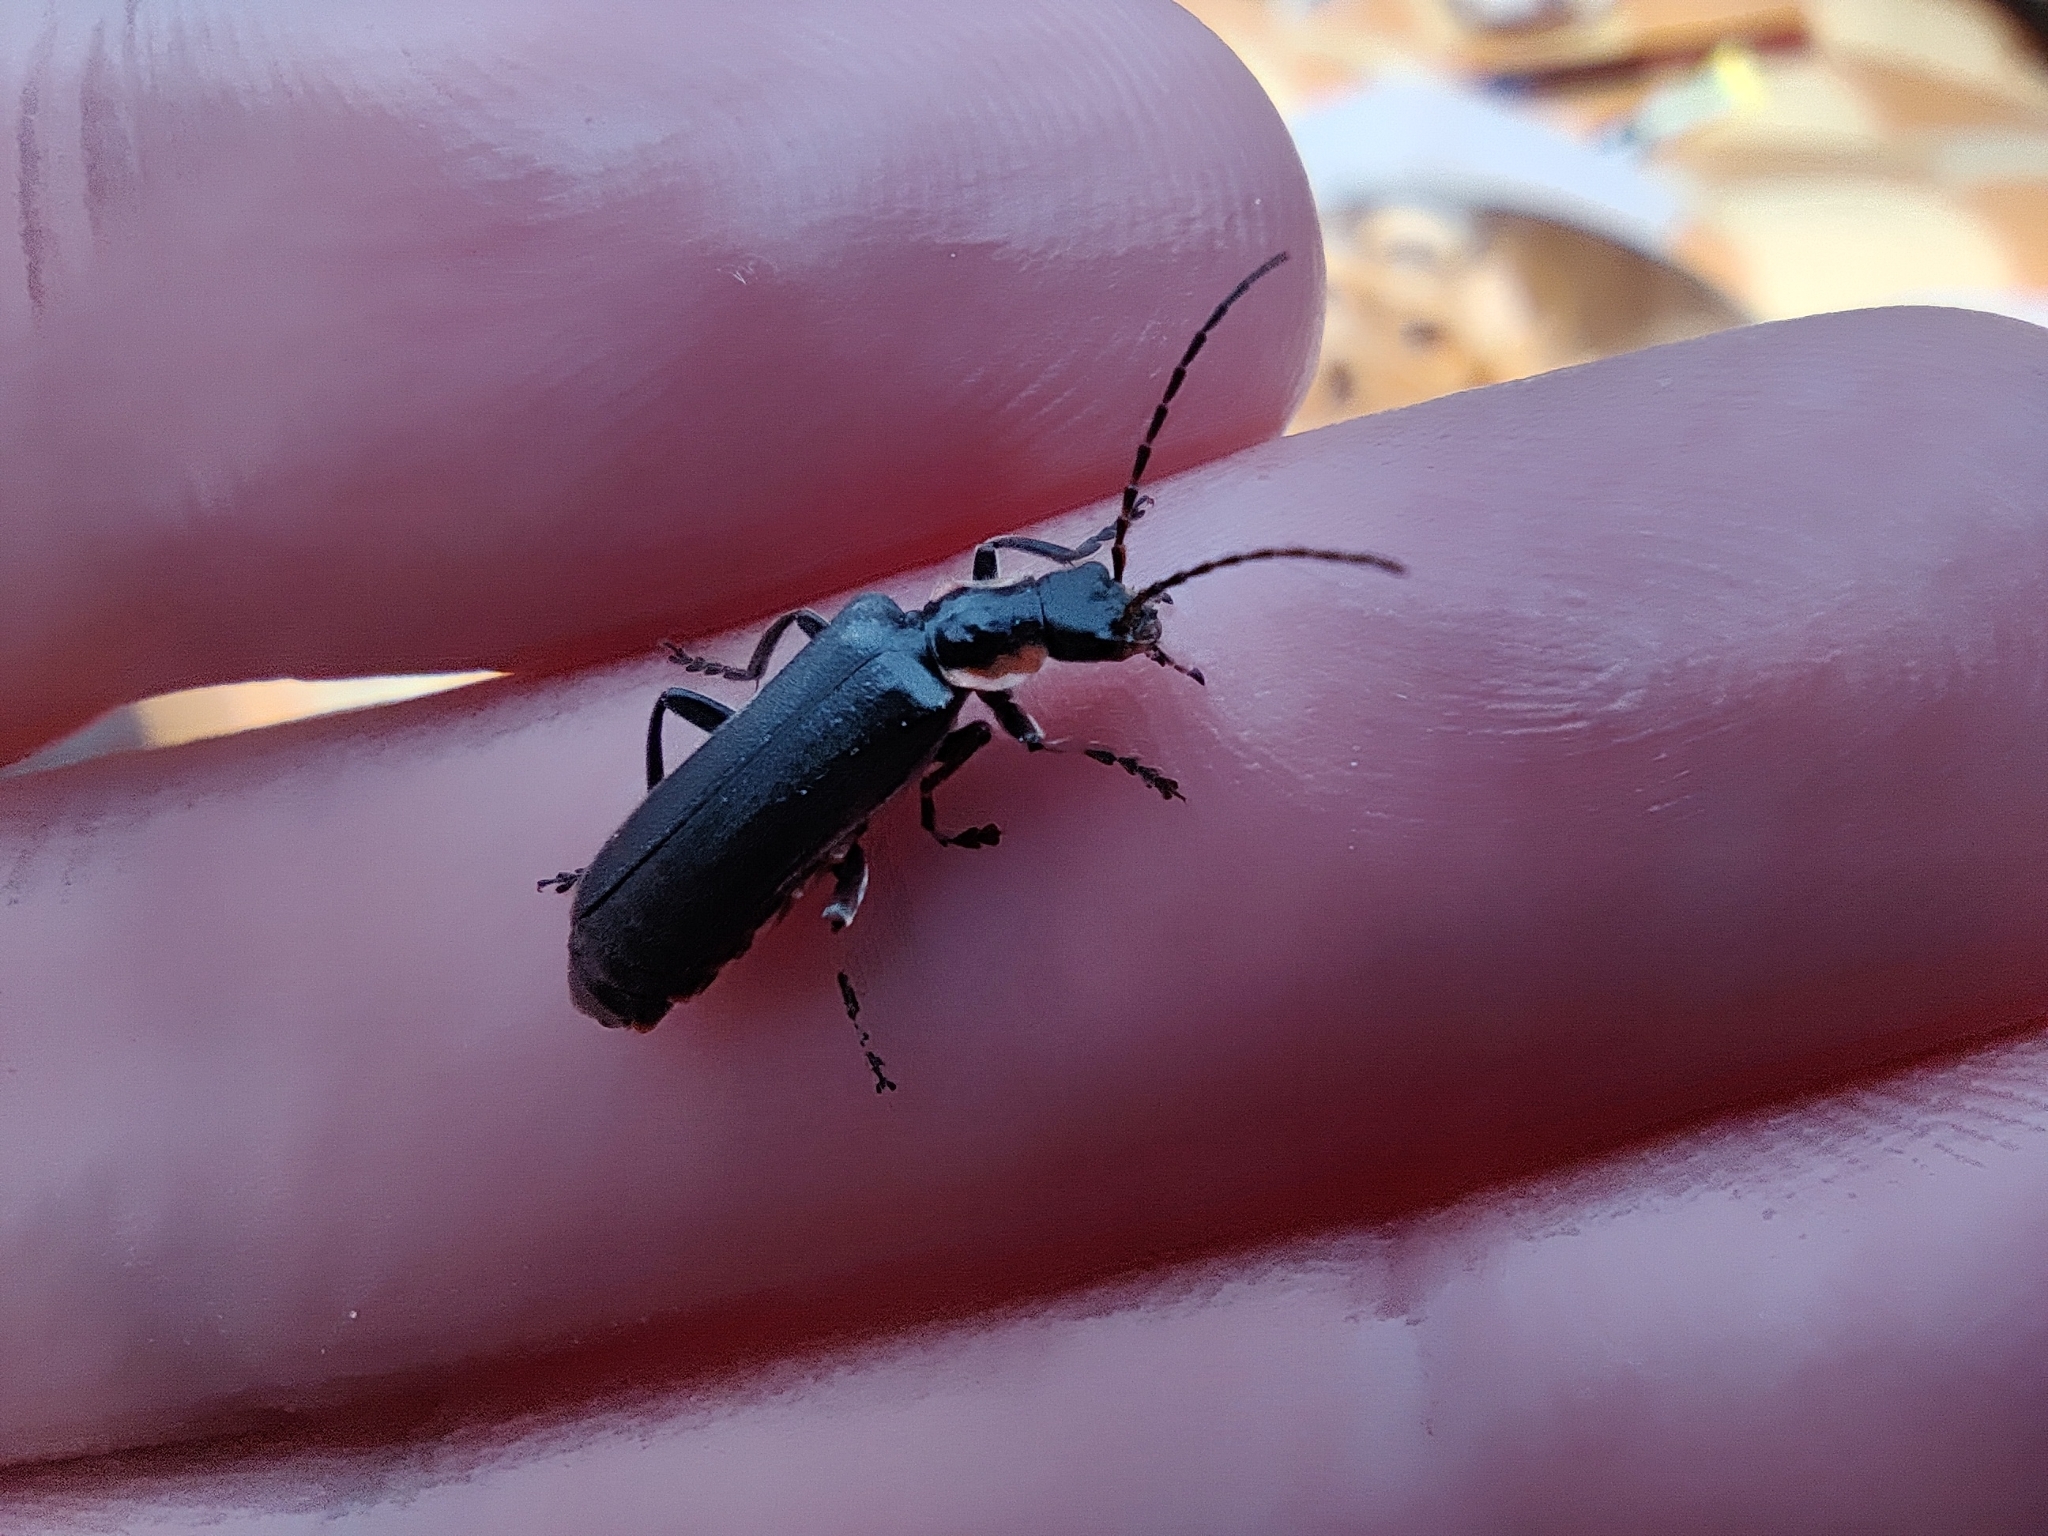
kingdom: Animalia
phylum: Arthropoda
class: Insecta
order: Coleoptera
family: Cantharidae
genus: Cantharis
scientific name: Cantharis obscura
